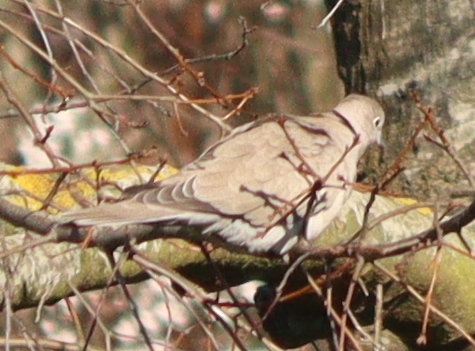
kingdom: Animalia
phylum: Chordata
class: Aves
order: Columbiformes
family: Columbidae
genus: Streptopelia
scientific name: Streptopelia decaocto
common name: Eurasian collared dove
